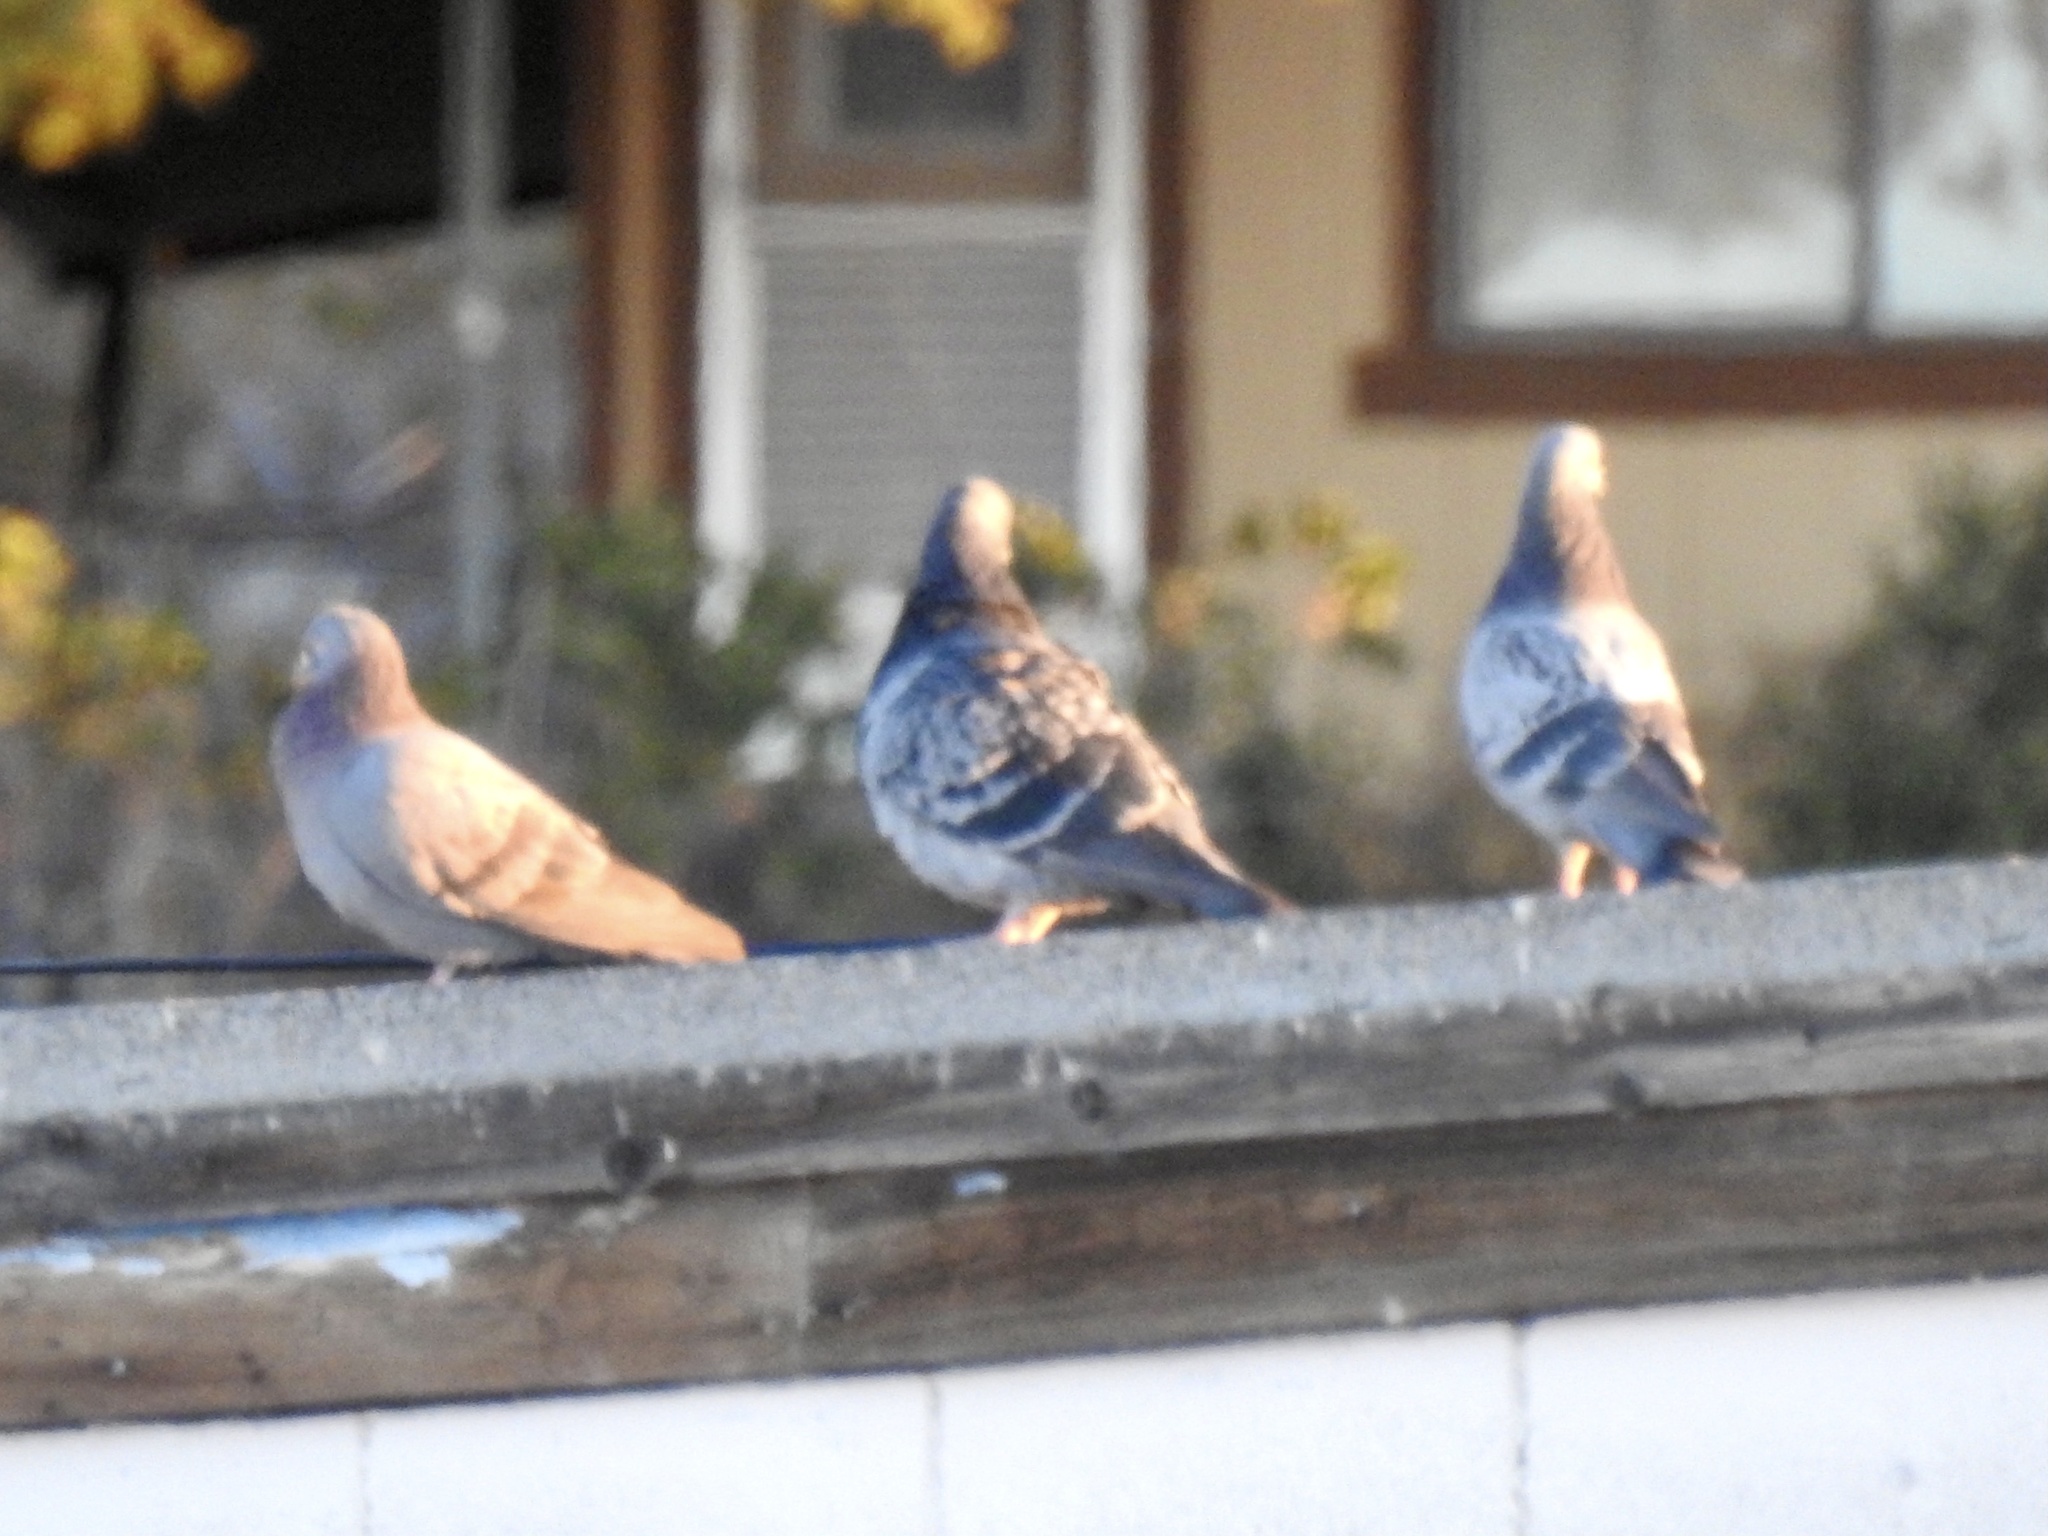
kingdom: Animalia
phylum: Chordata
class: Aves
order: Columbiformes
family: Columbidae
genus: Columba
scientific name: Columba livia
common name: Rock pigeon
